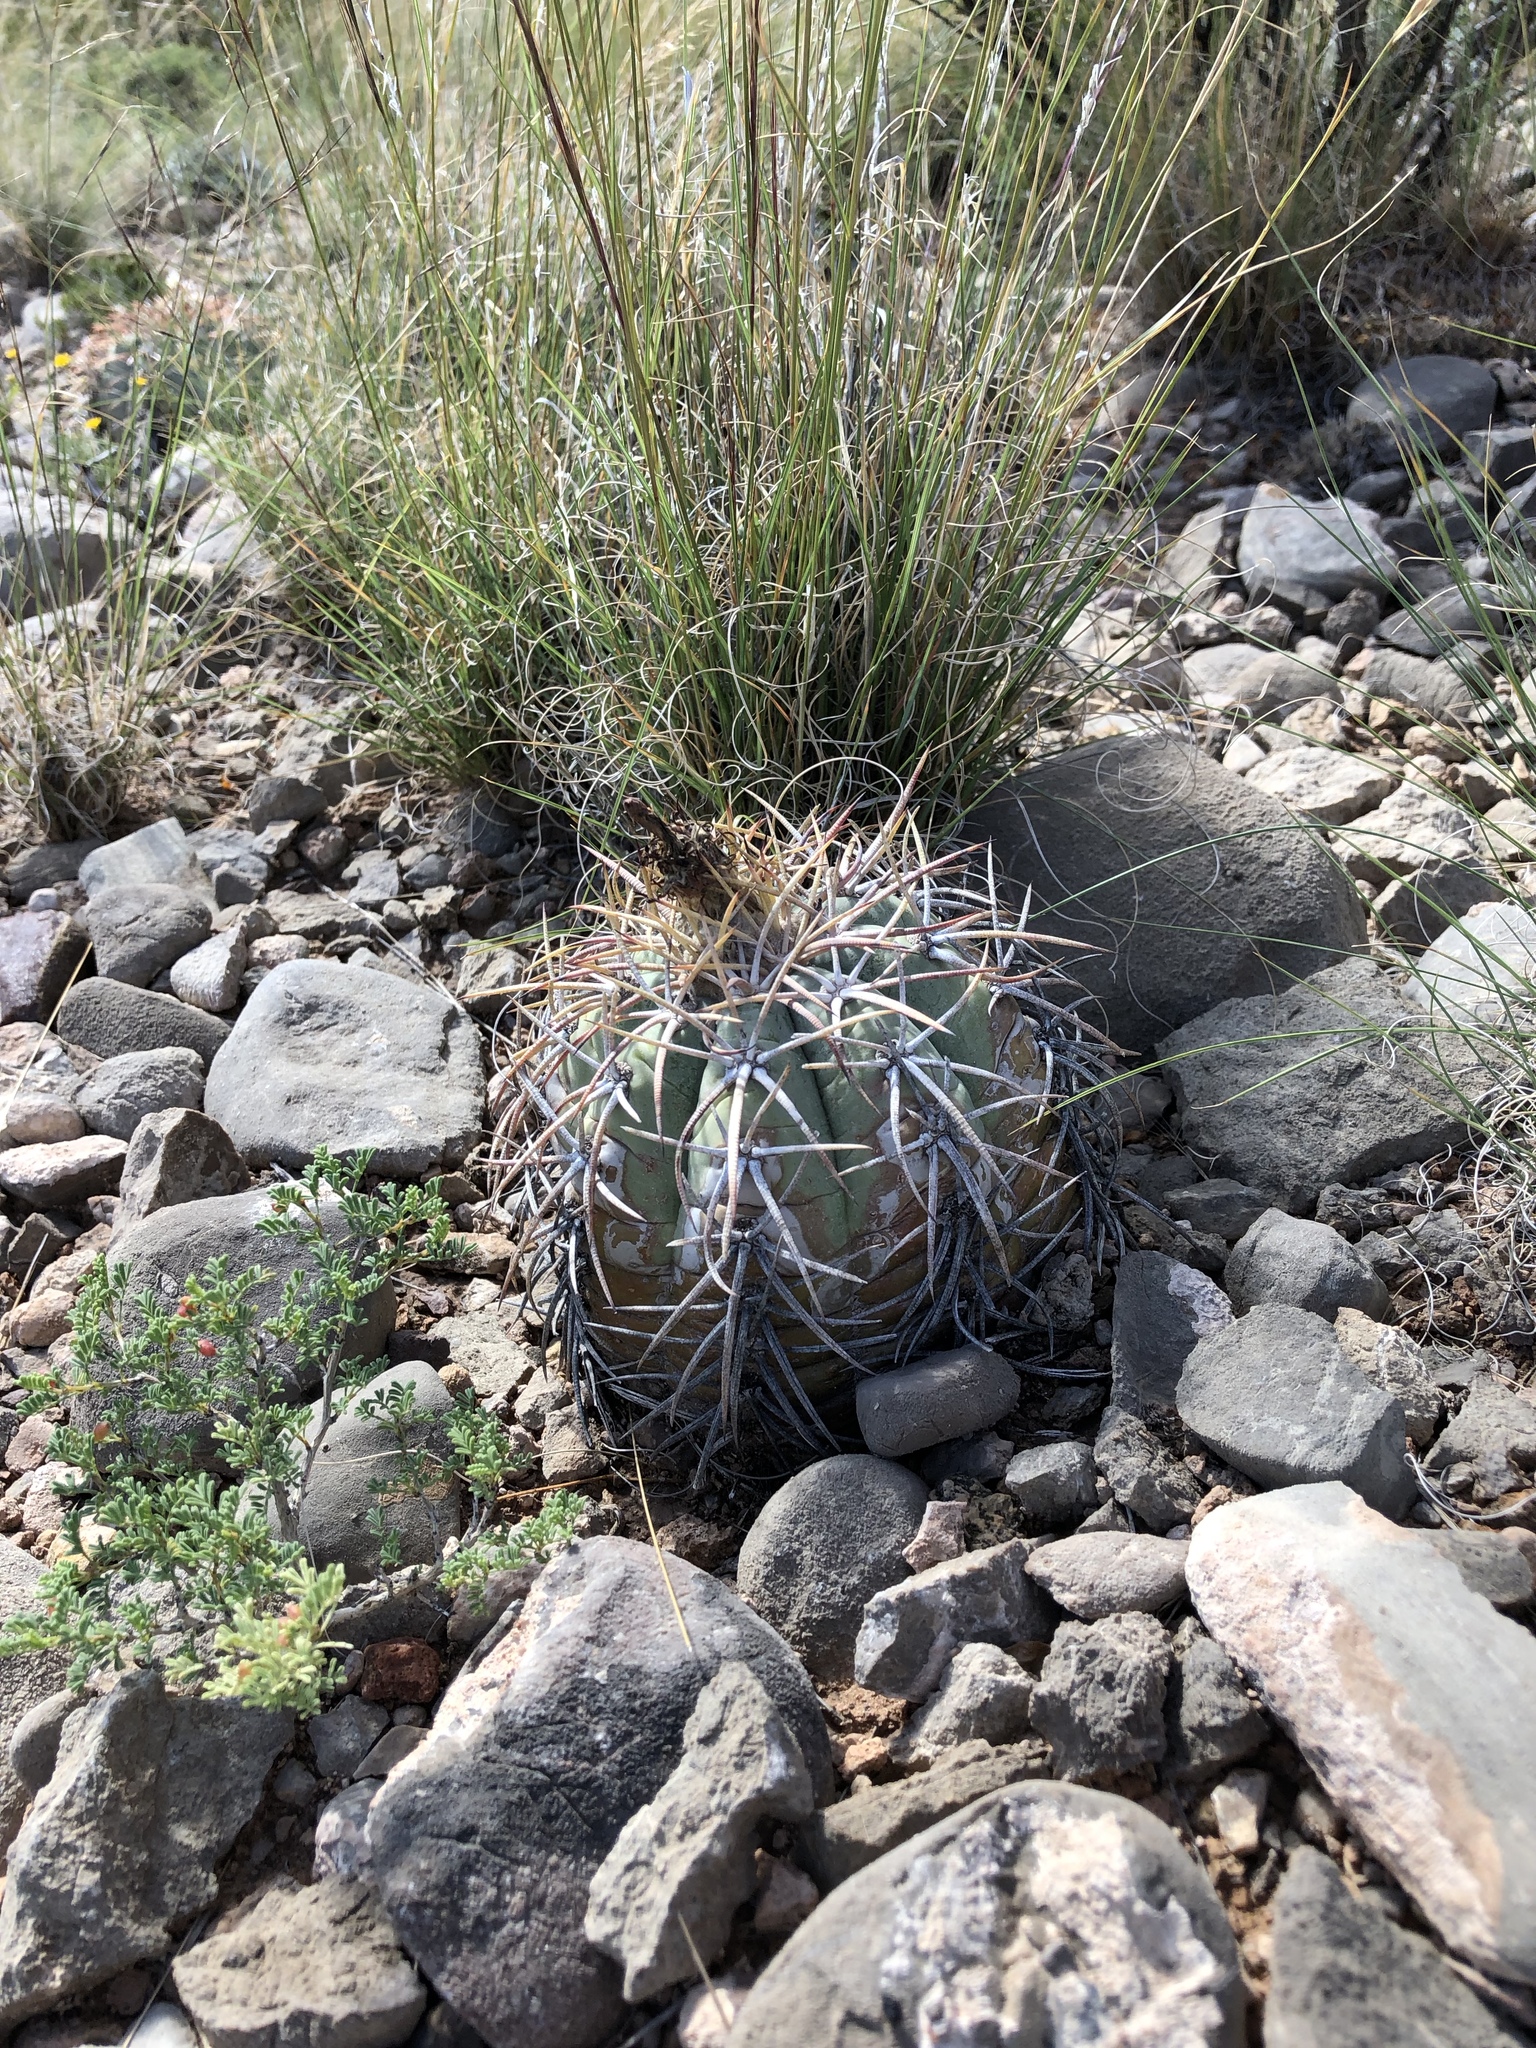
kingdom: Plantae
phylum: Tracheophyta
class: Magnoliopsida
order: Caryophyllales
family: Cactaceae
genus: Echinocactus
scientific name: Echinocactus horizonthalonius
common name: Devilshead
